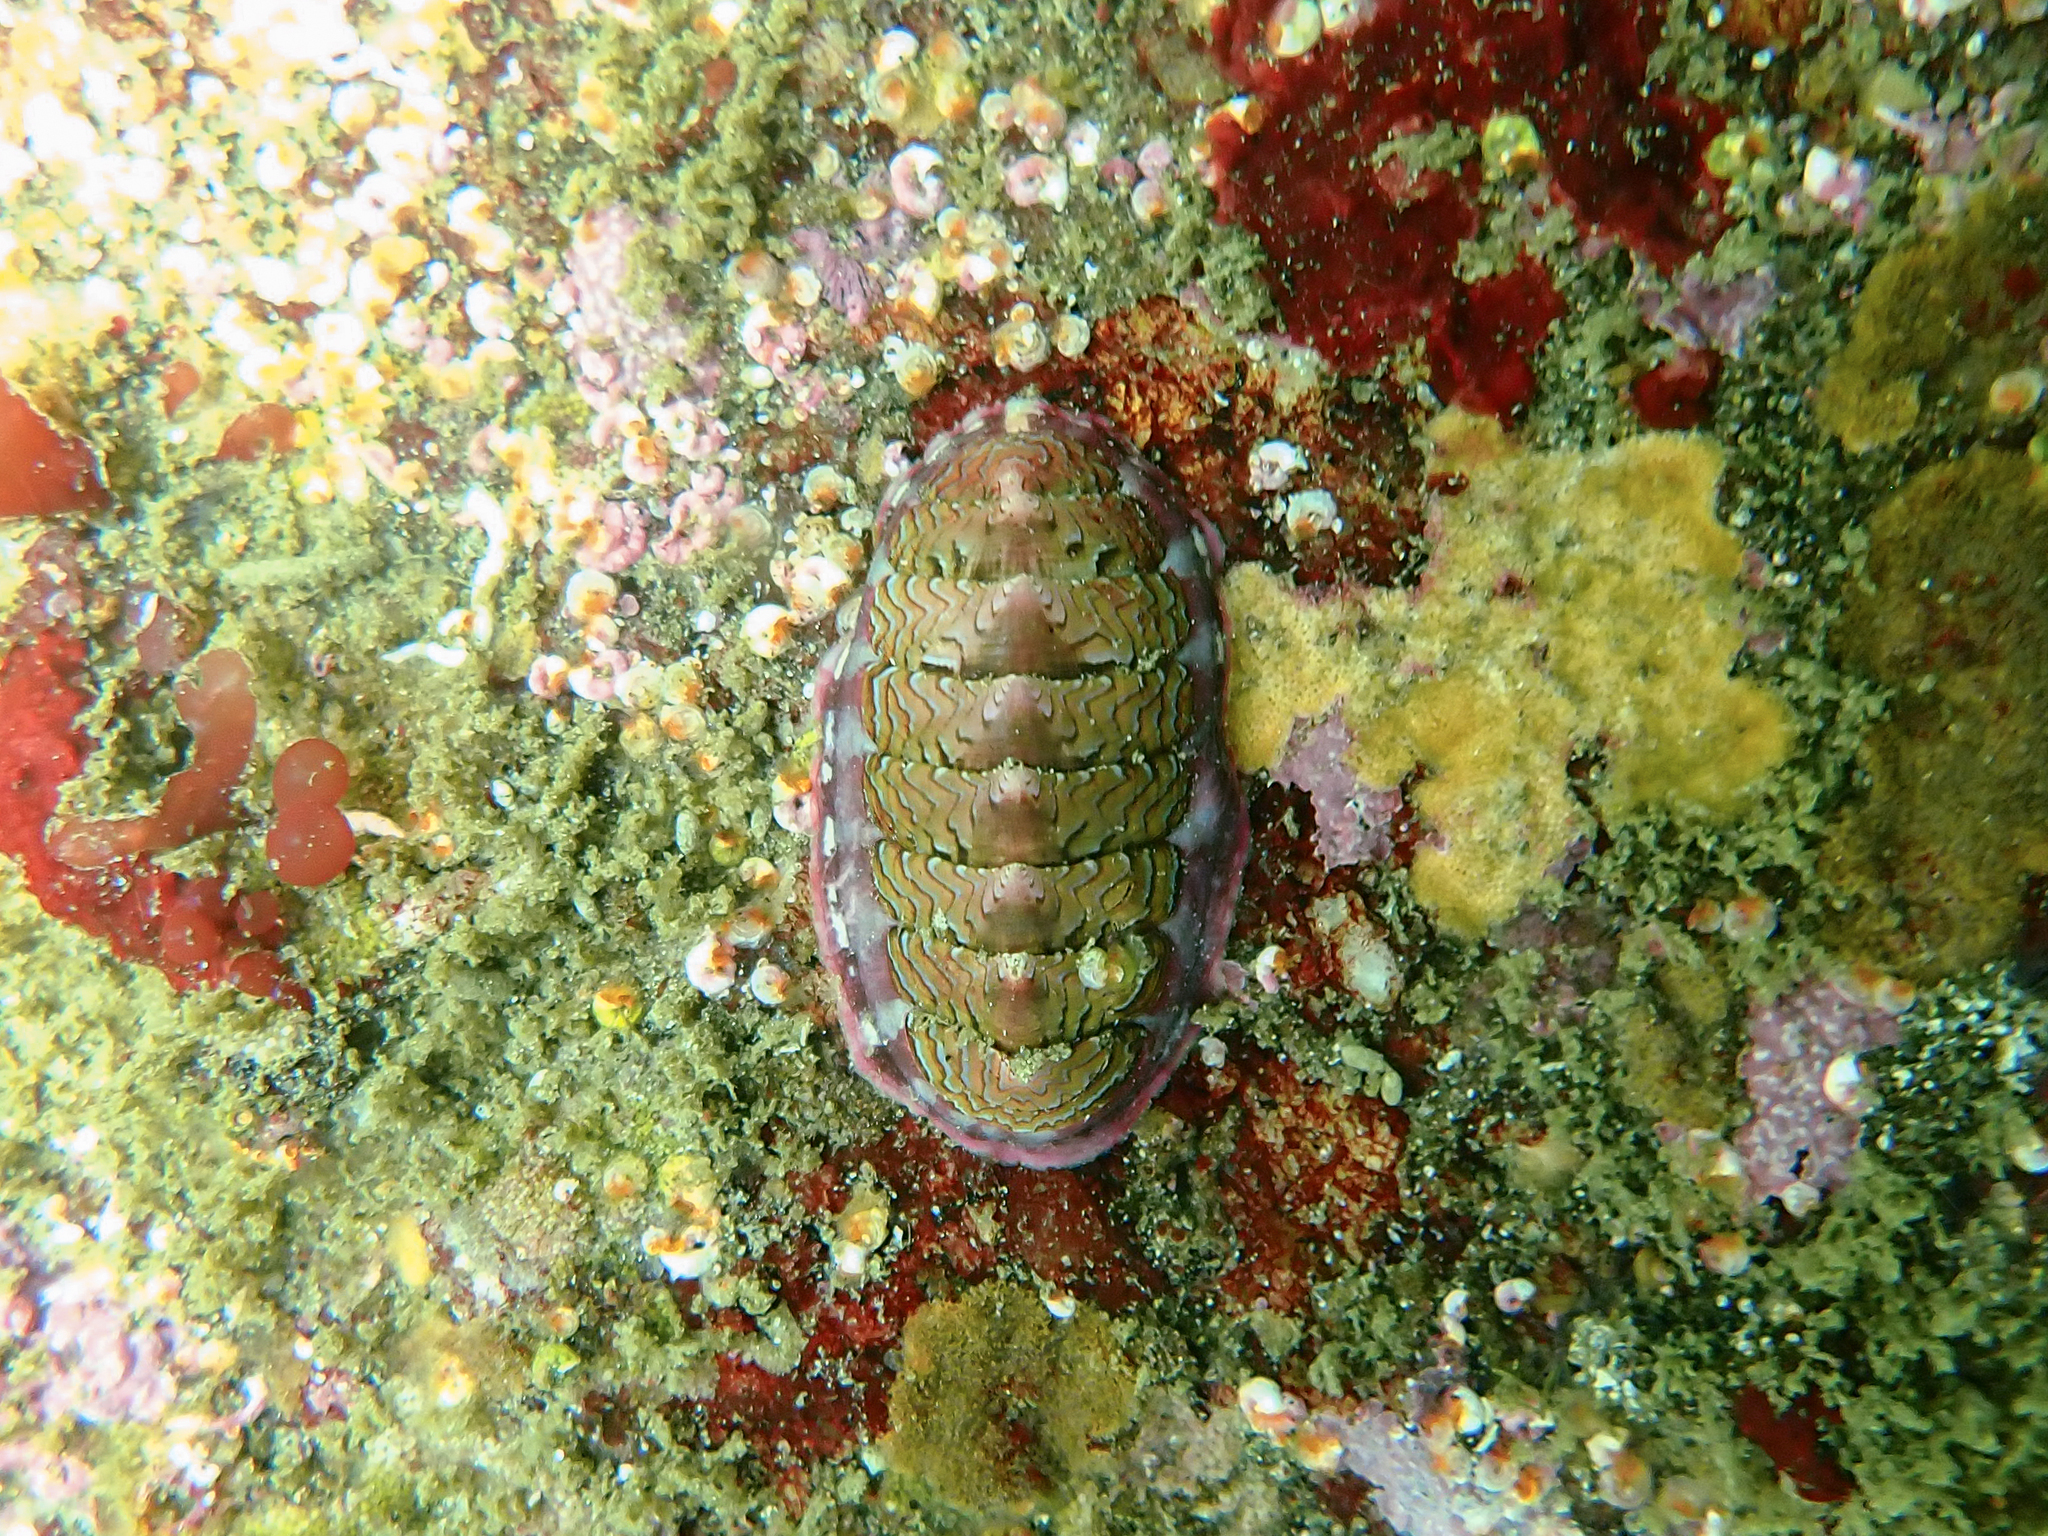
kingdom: Animalia
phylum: Mollusca
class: Polyplacophora
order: Chitonida
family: Tonicellidae
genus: Tonicella
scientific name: Tonicella lokii
